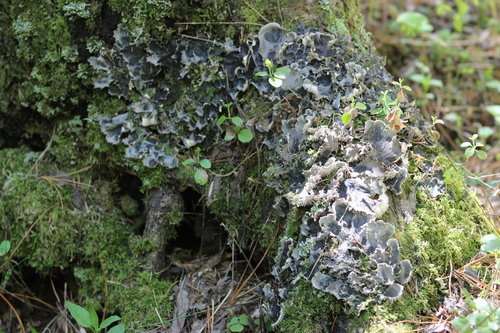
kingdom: Fungi
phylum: Ascomycota
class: Lecanoromycetes
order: Peltigerales
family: Peltigeraceae
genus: Peltigera
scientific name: Peltigera
